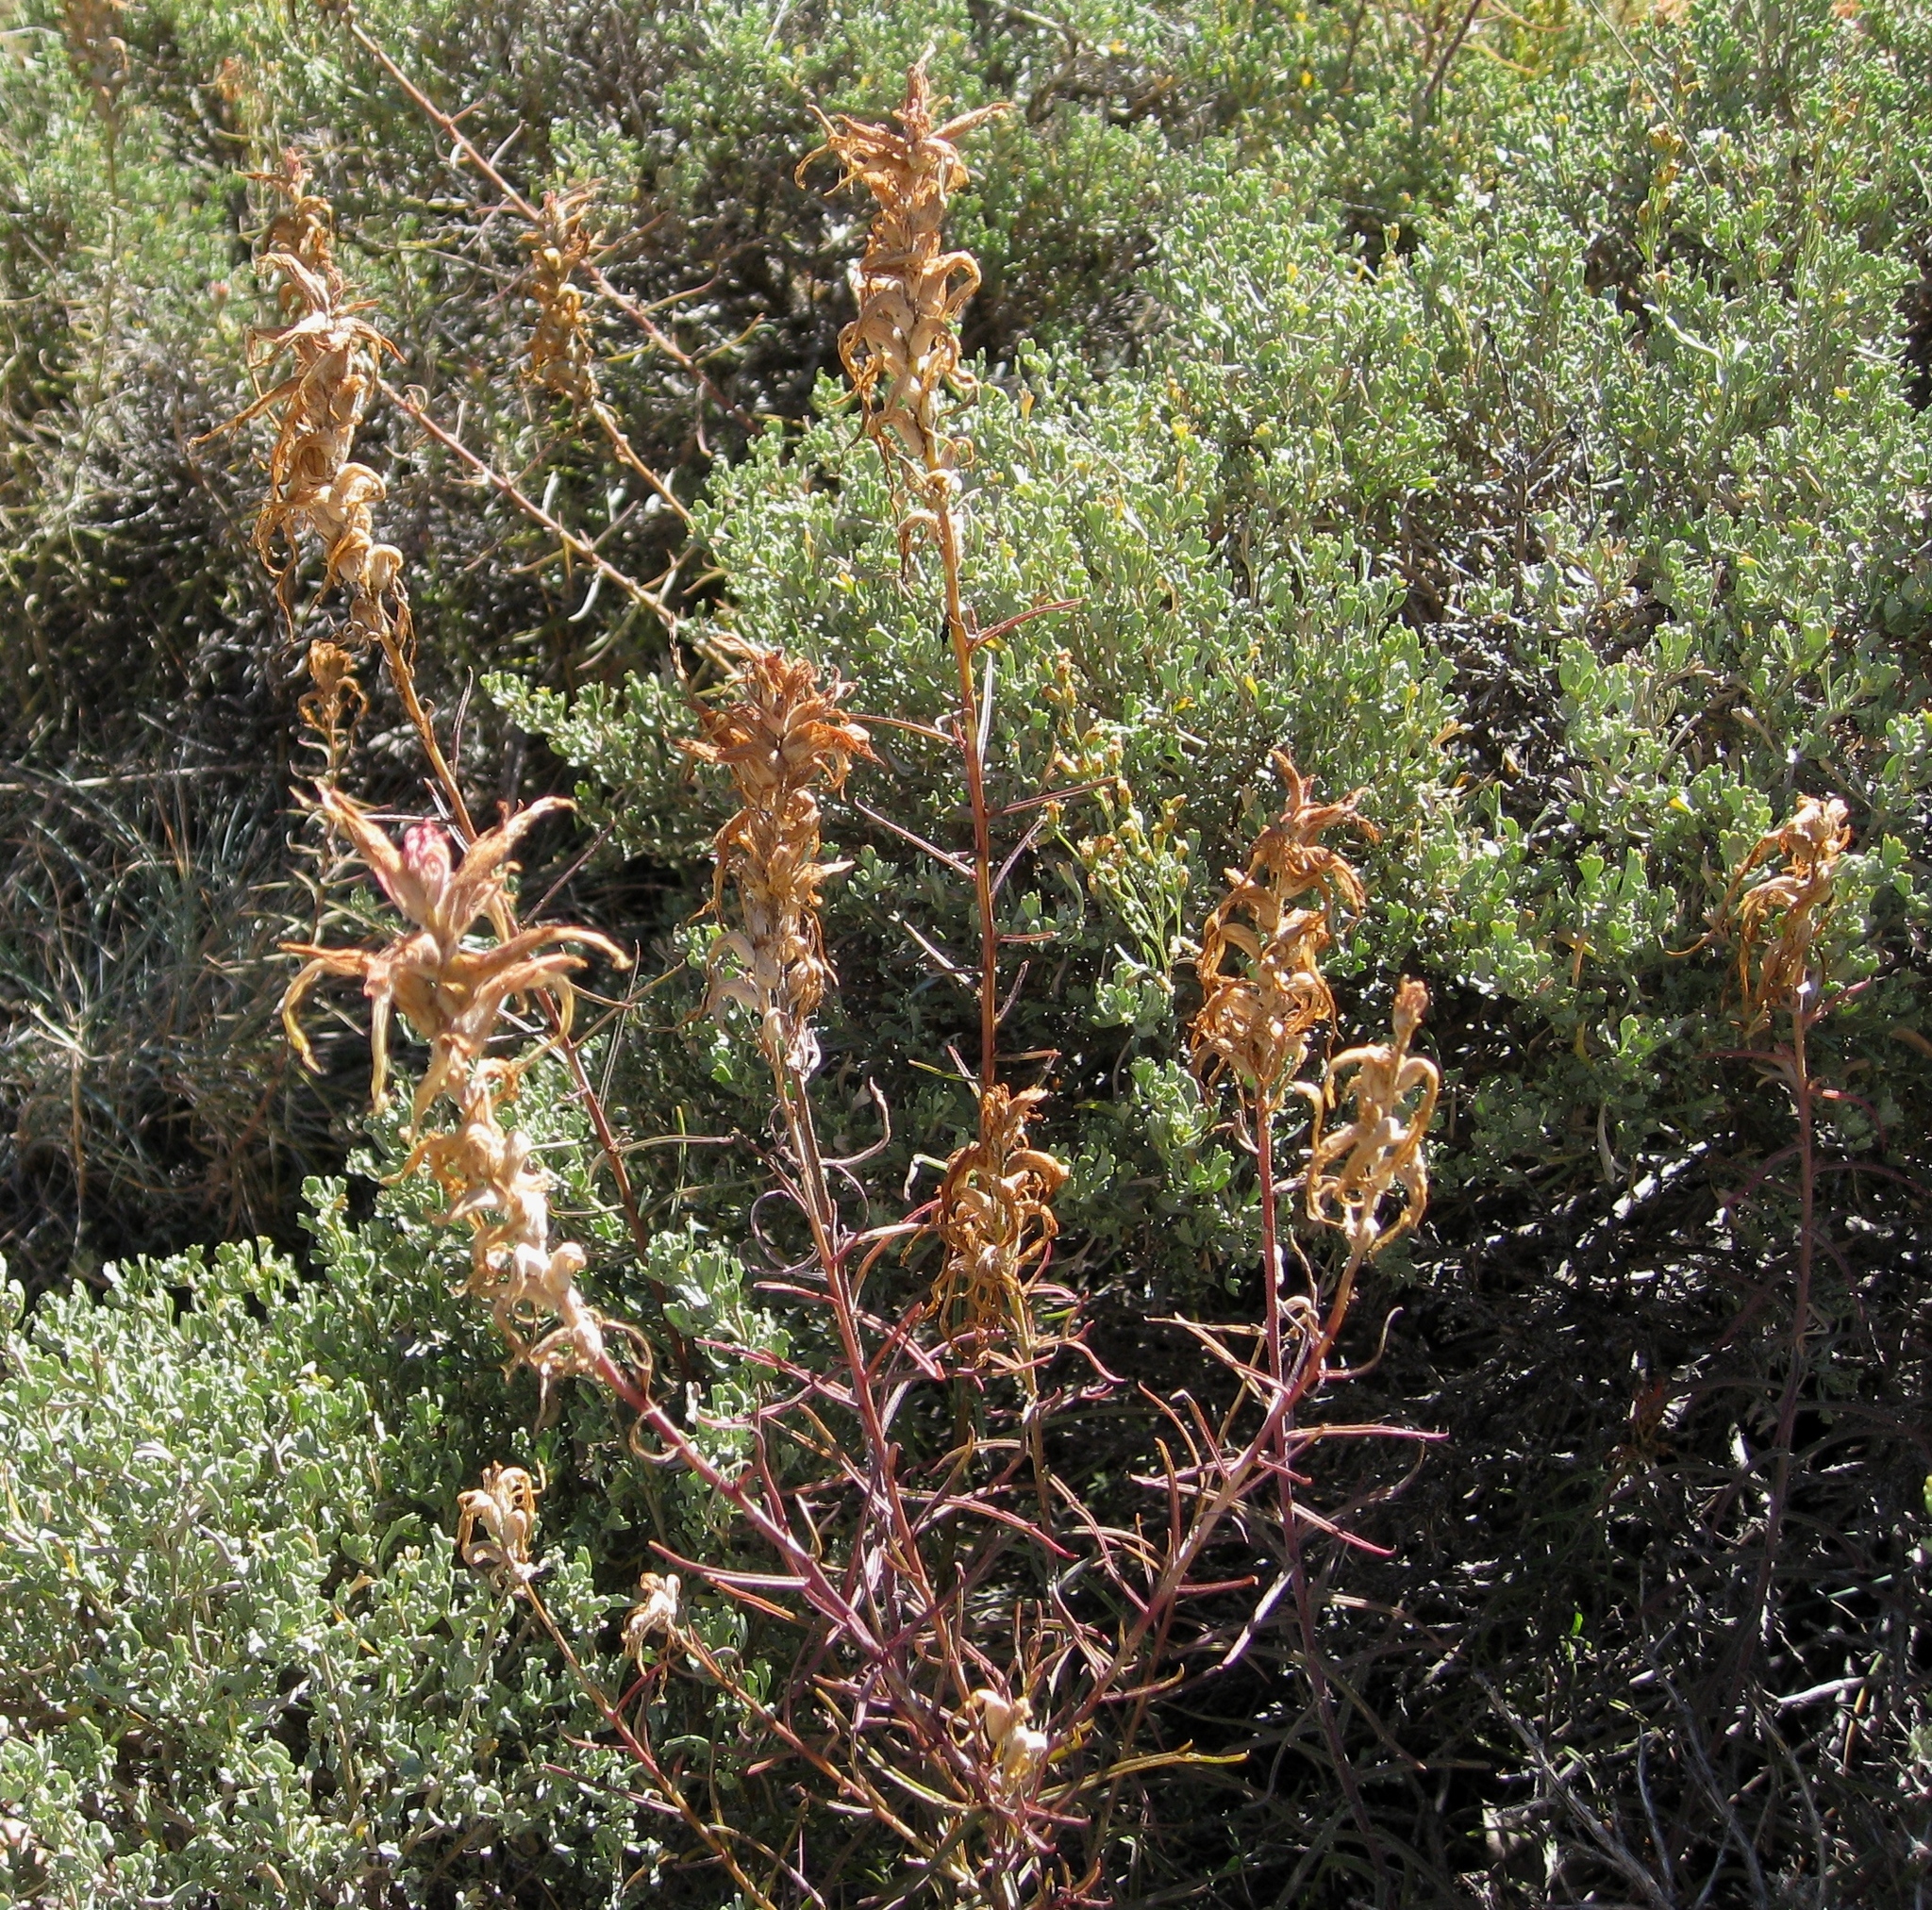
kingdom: Plantae
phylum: Tracheophyta
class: Magnoliopsida
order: Lamiales
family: Orobanchaceae
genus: Castilleja
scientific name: Castilleja linariifolia
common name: Wyoming paintbrush
